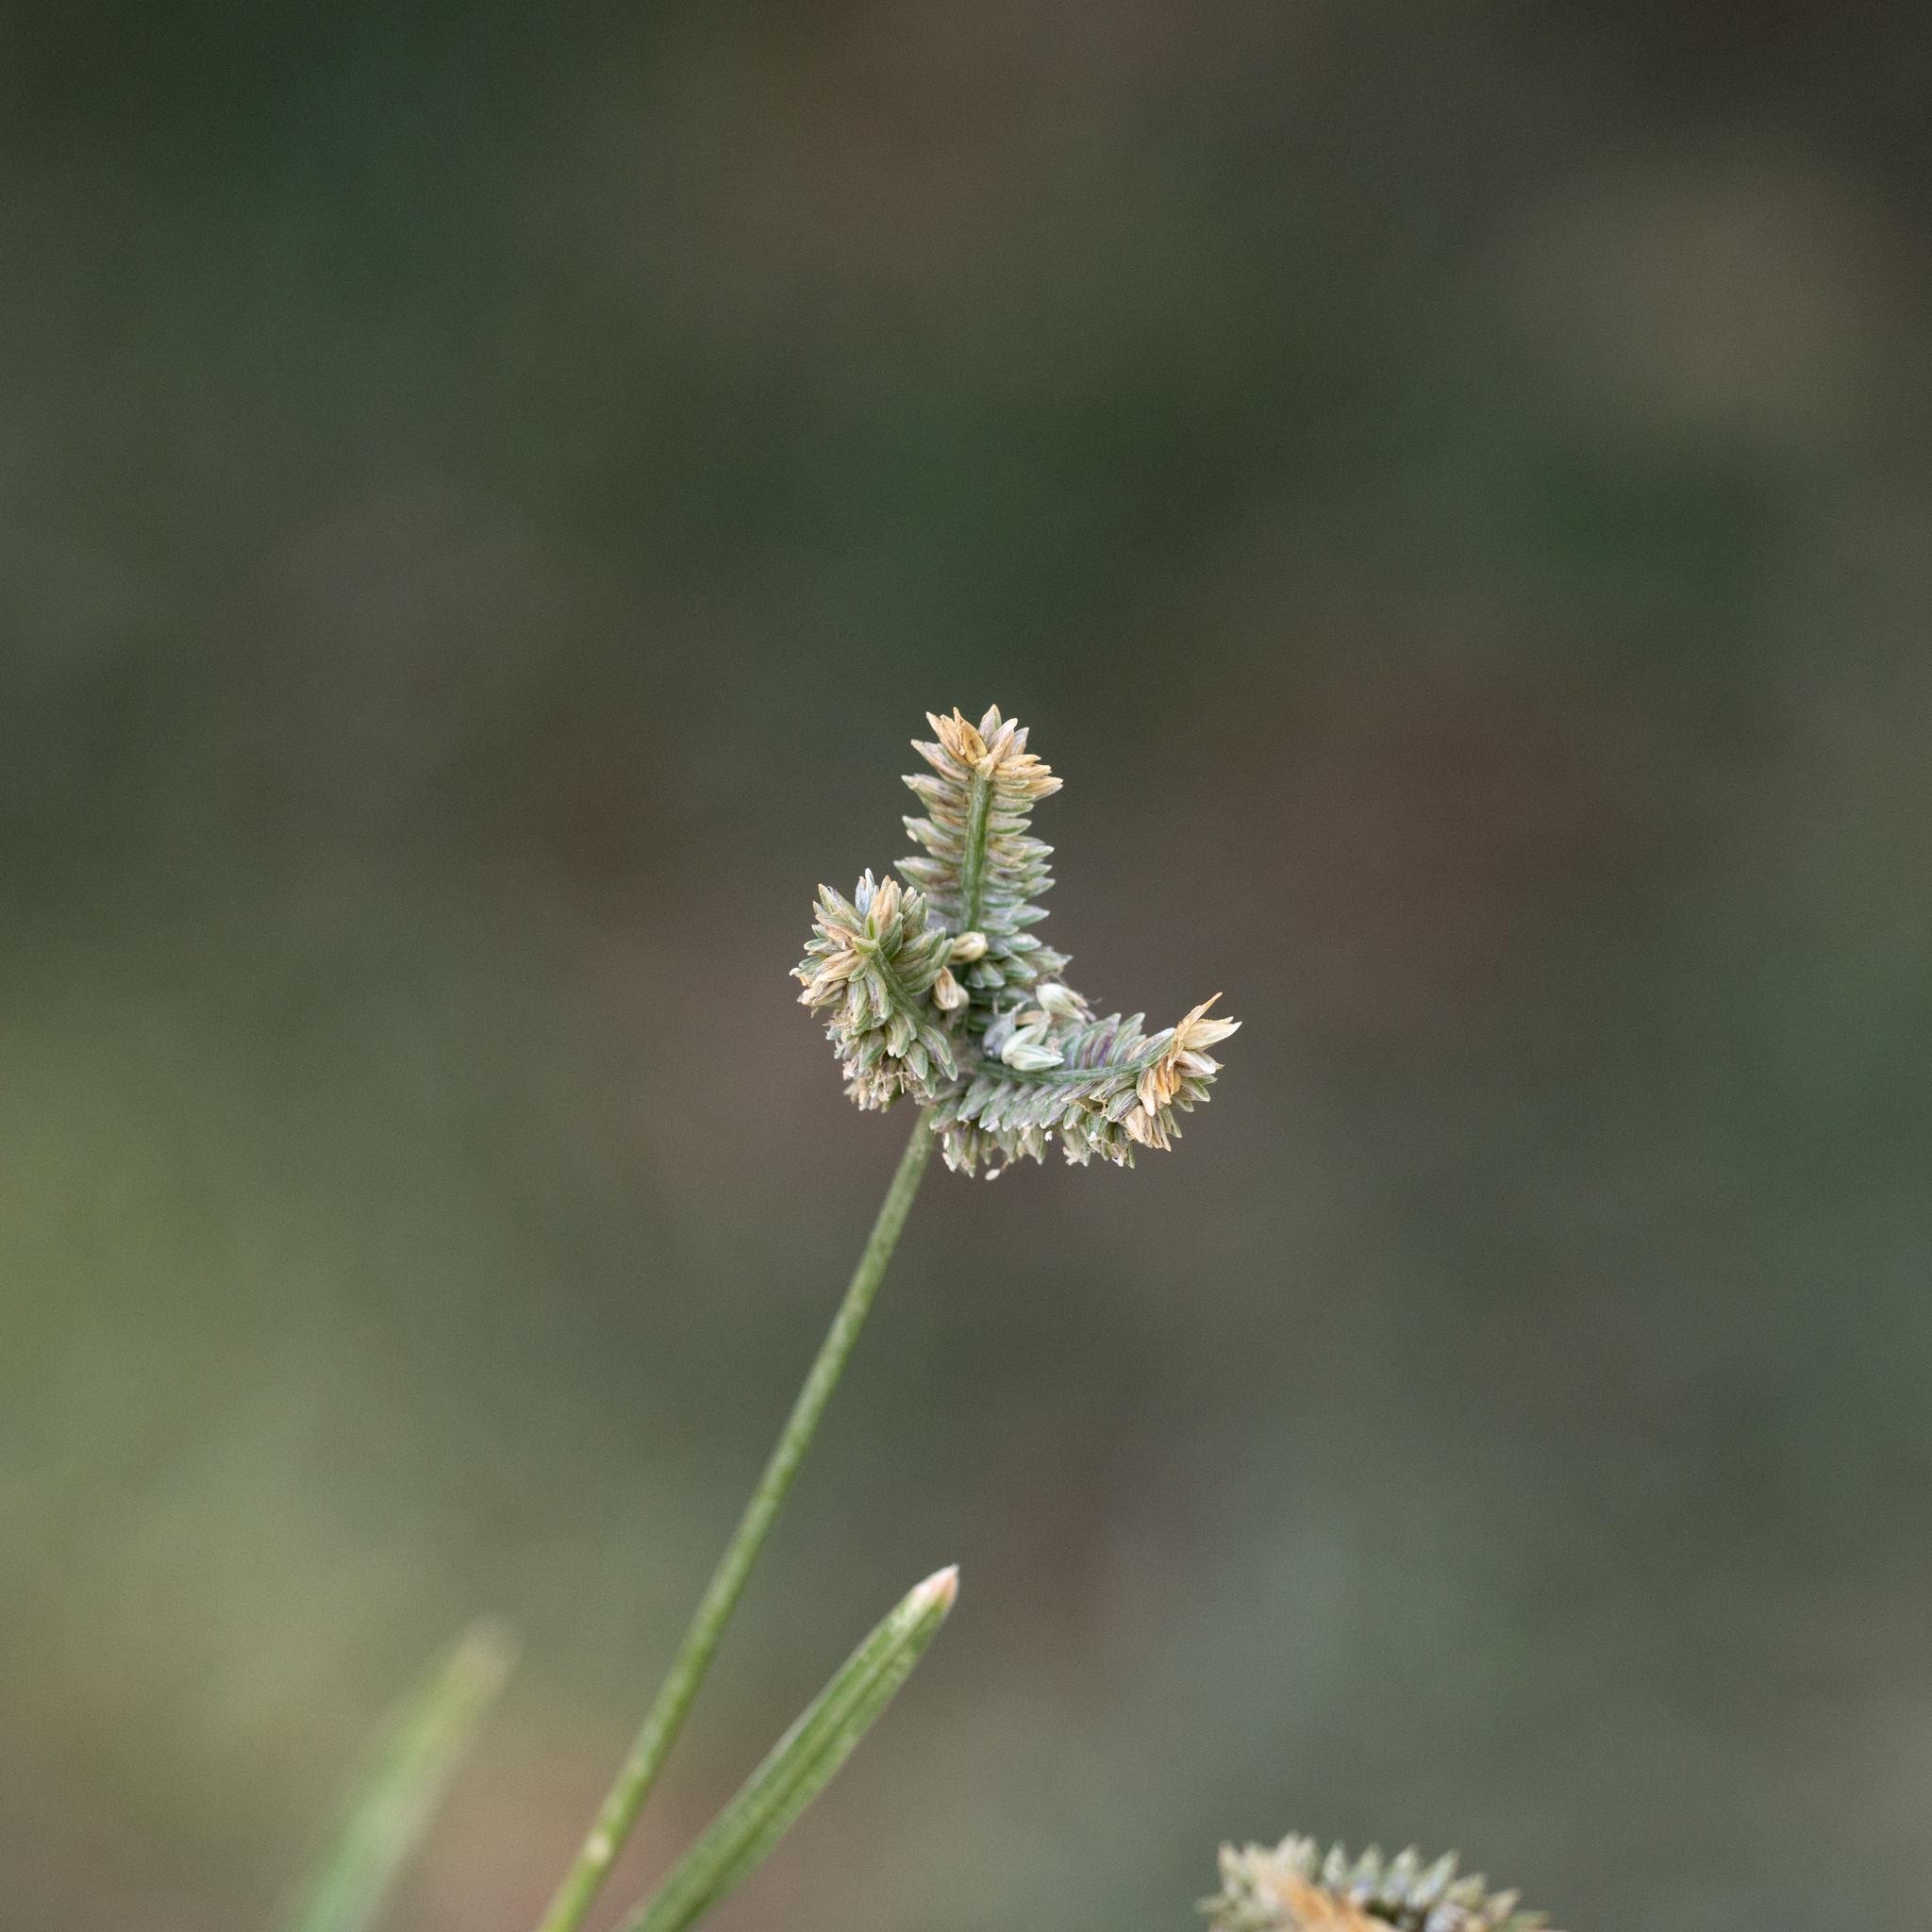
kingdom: Plantae
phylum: Tracheophyta
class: Liliopsida
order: Poales
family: Poaceae
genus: Eleusine
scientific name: Eleusine tristachya
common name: American yard-grass
